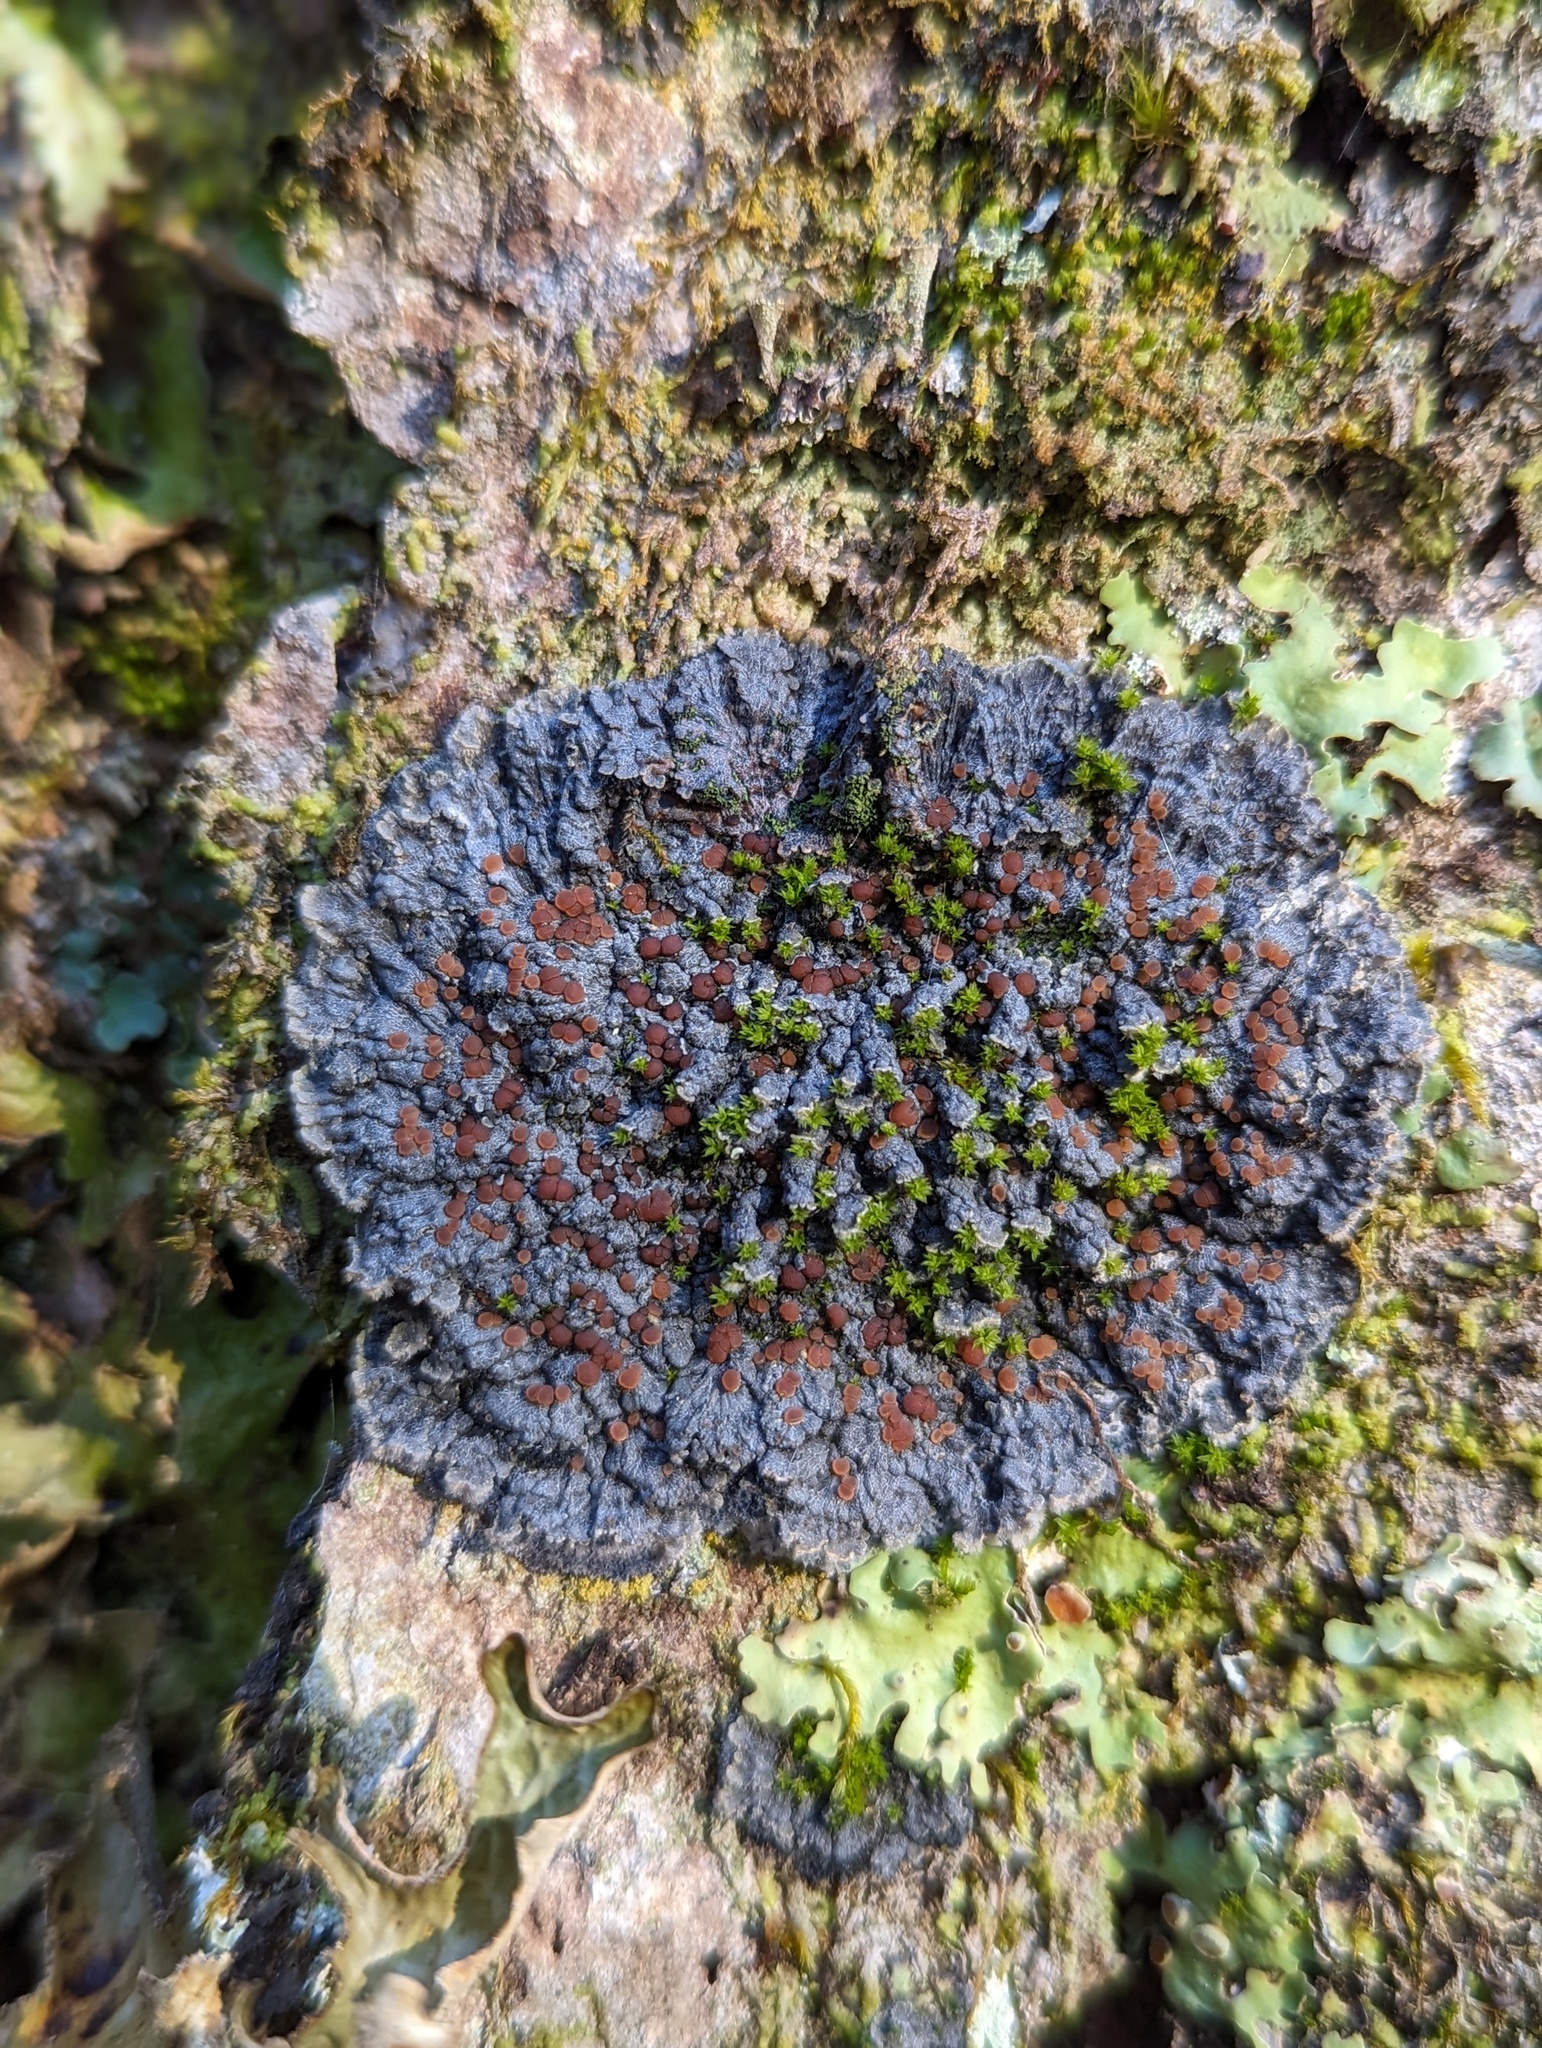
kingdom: Fungi
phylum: Ascomycota
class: Lecanoromycetes
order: Peltigerales
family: Pannariaceae
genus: Pectenia
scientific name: Pectenia plumbea
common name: Bladder stalks
